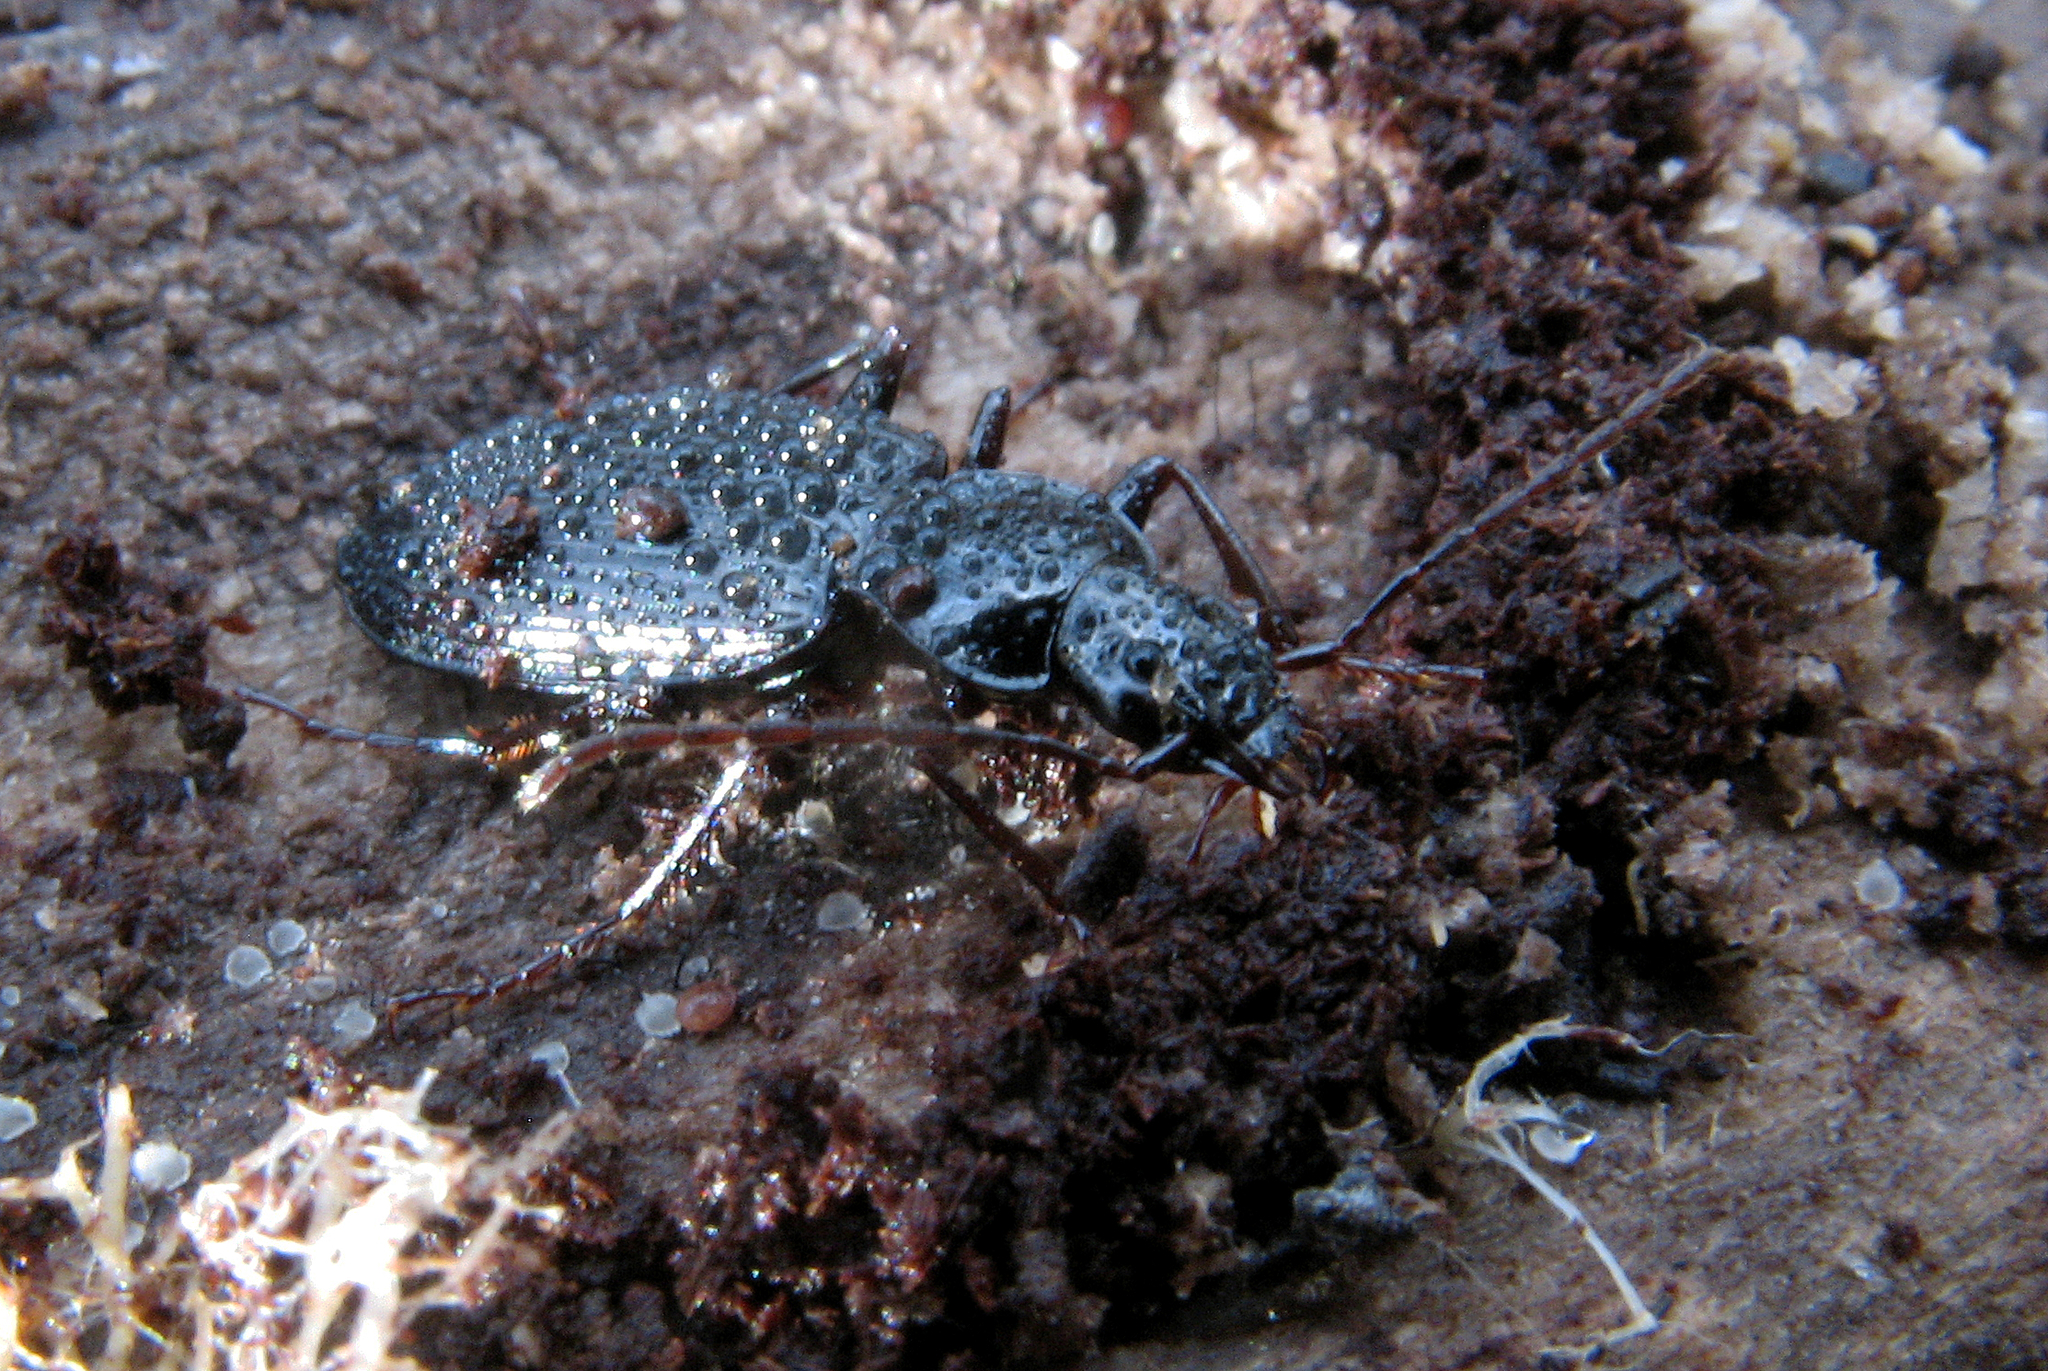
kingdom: Animalia
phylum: Arthropoda
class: Insecta
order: Coleoptera
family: Carabidae
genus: Platynus
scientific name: Platynus assimilis
